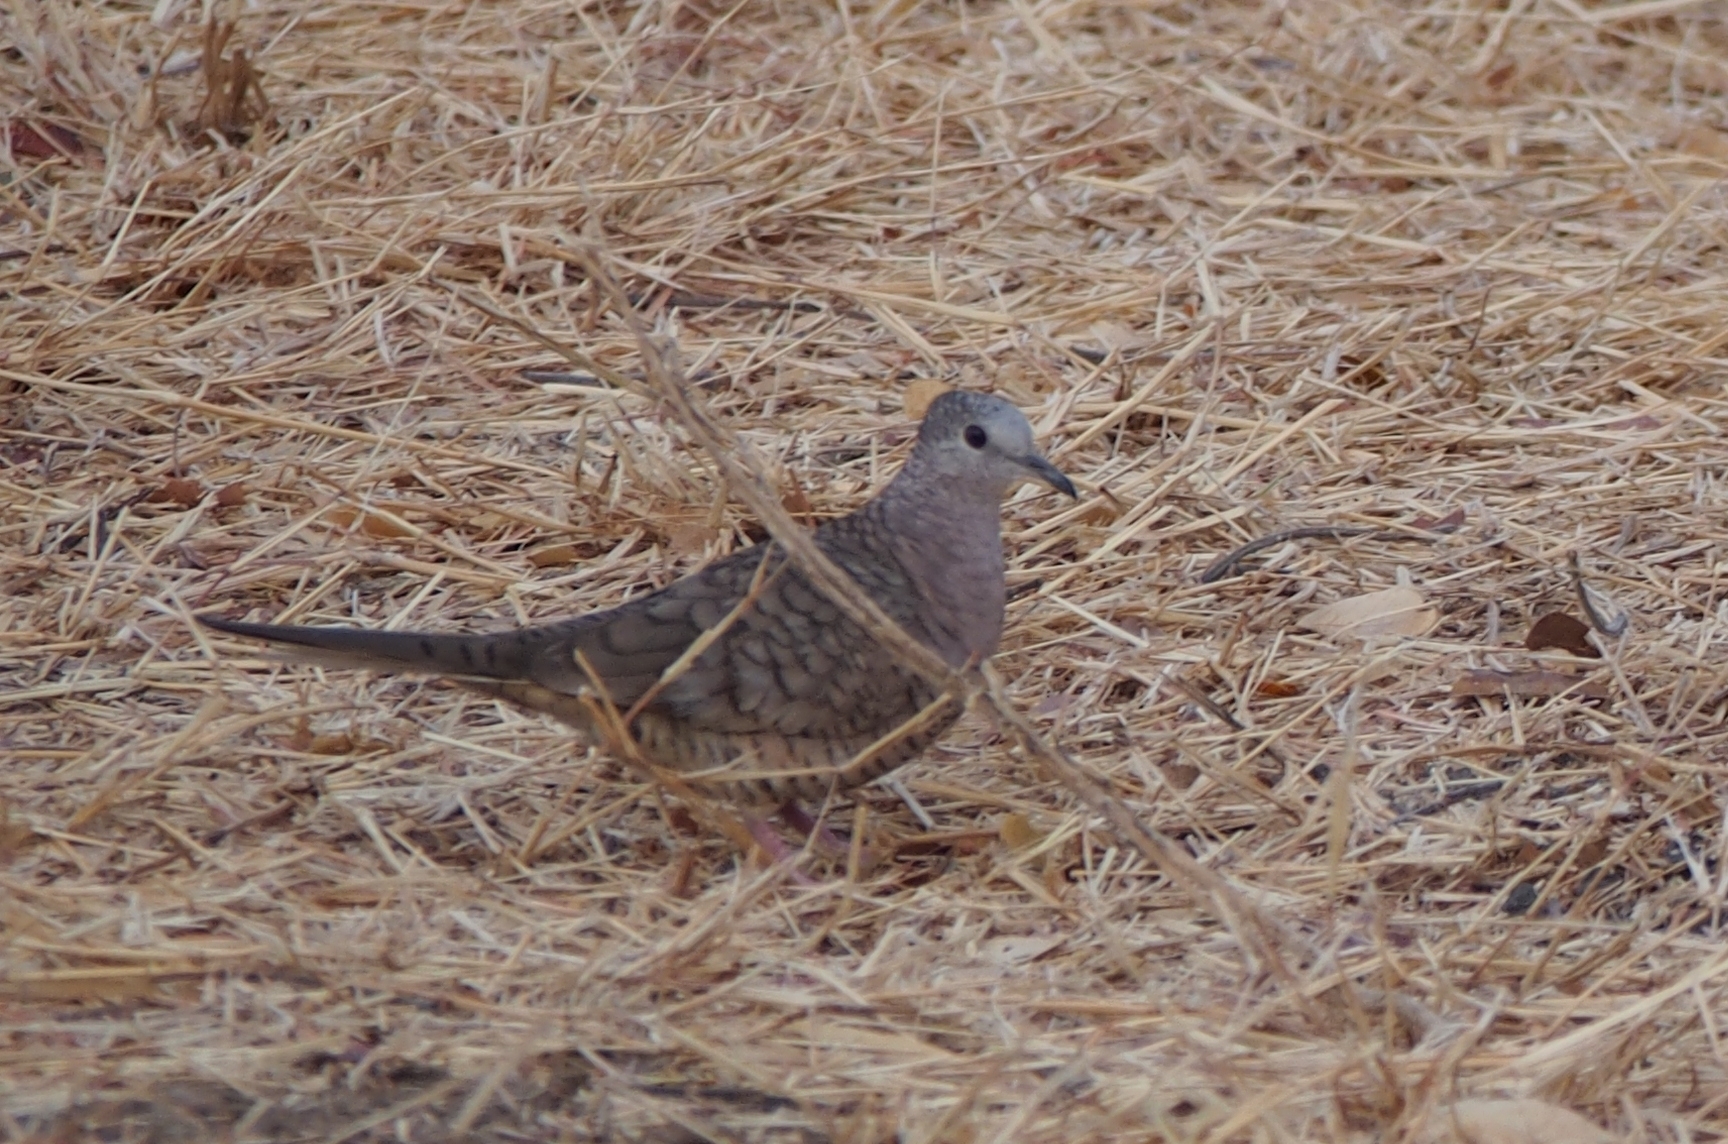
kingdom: Animalia
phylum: Chordata
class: Aves
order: Columbiformes
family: Columbidae
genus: Columbina
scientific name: Columbina inca
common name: Inca dove
